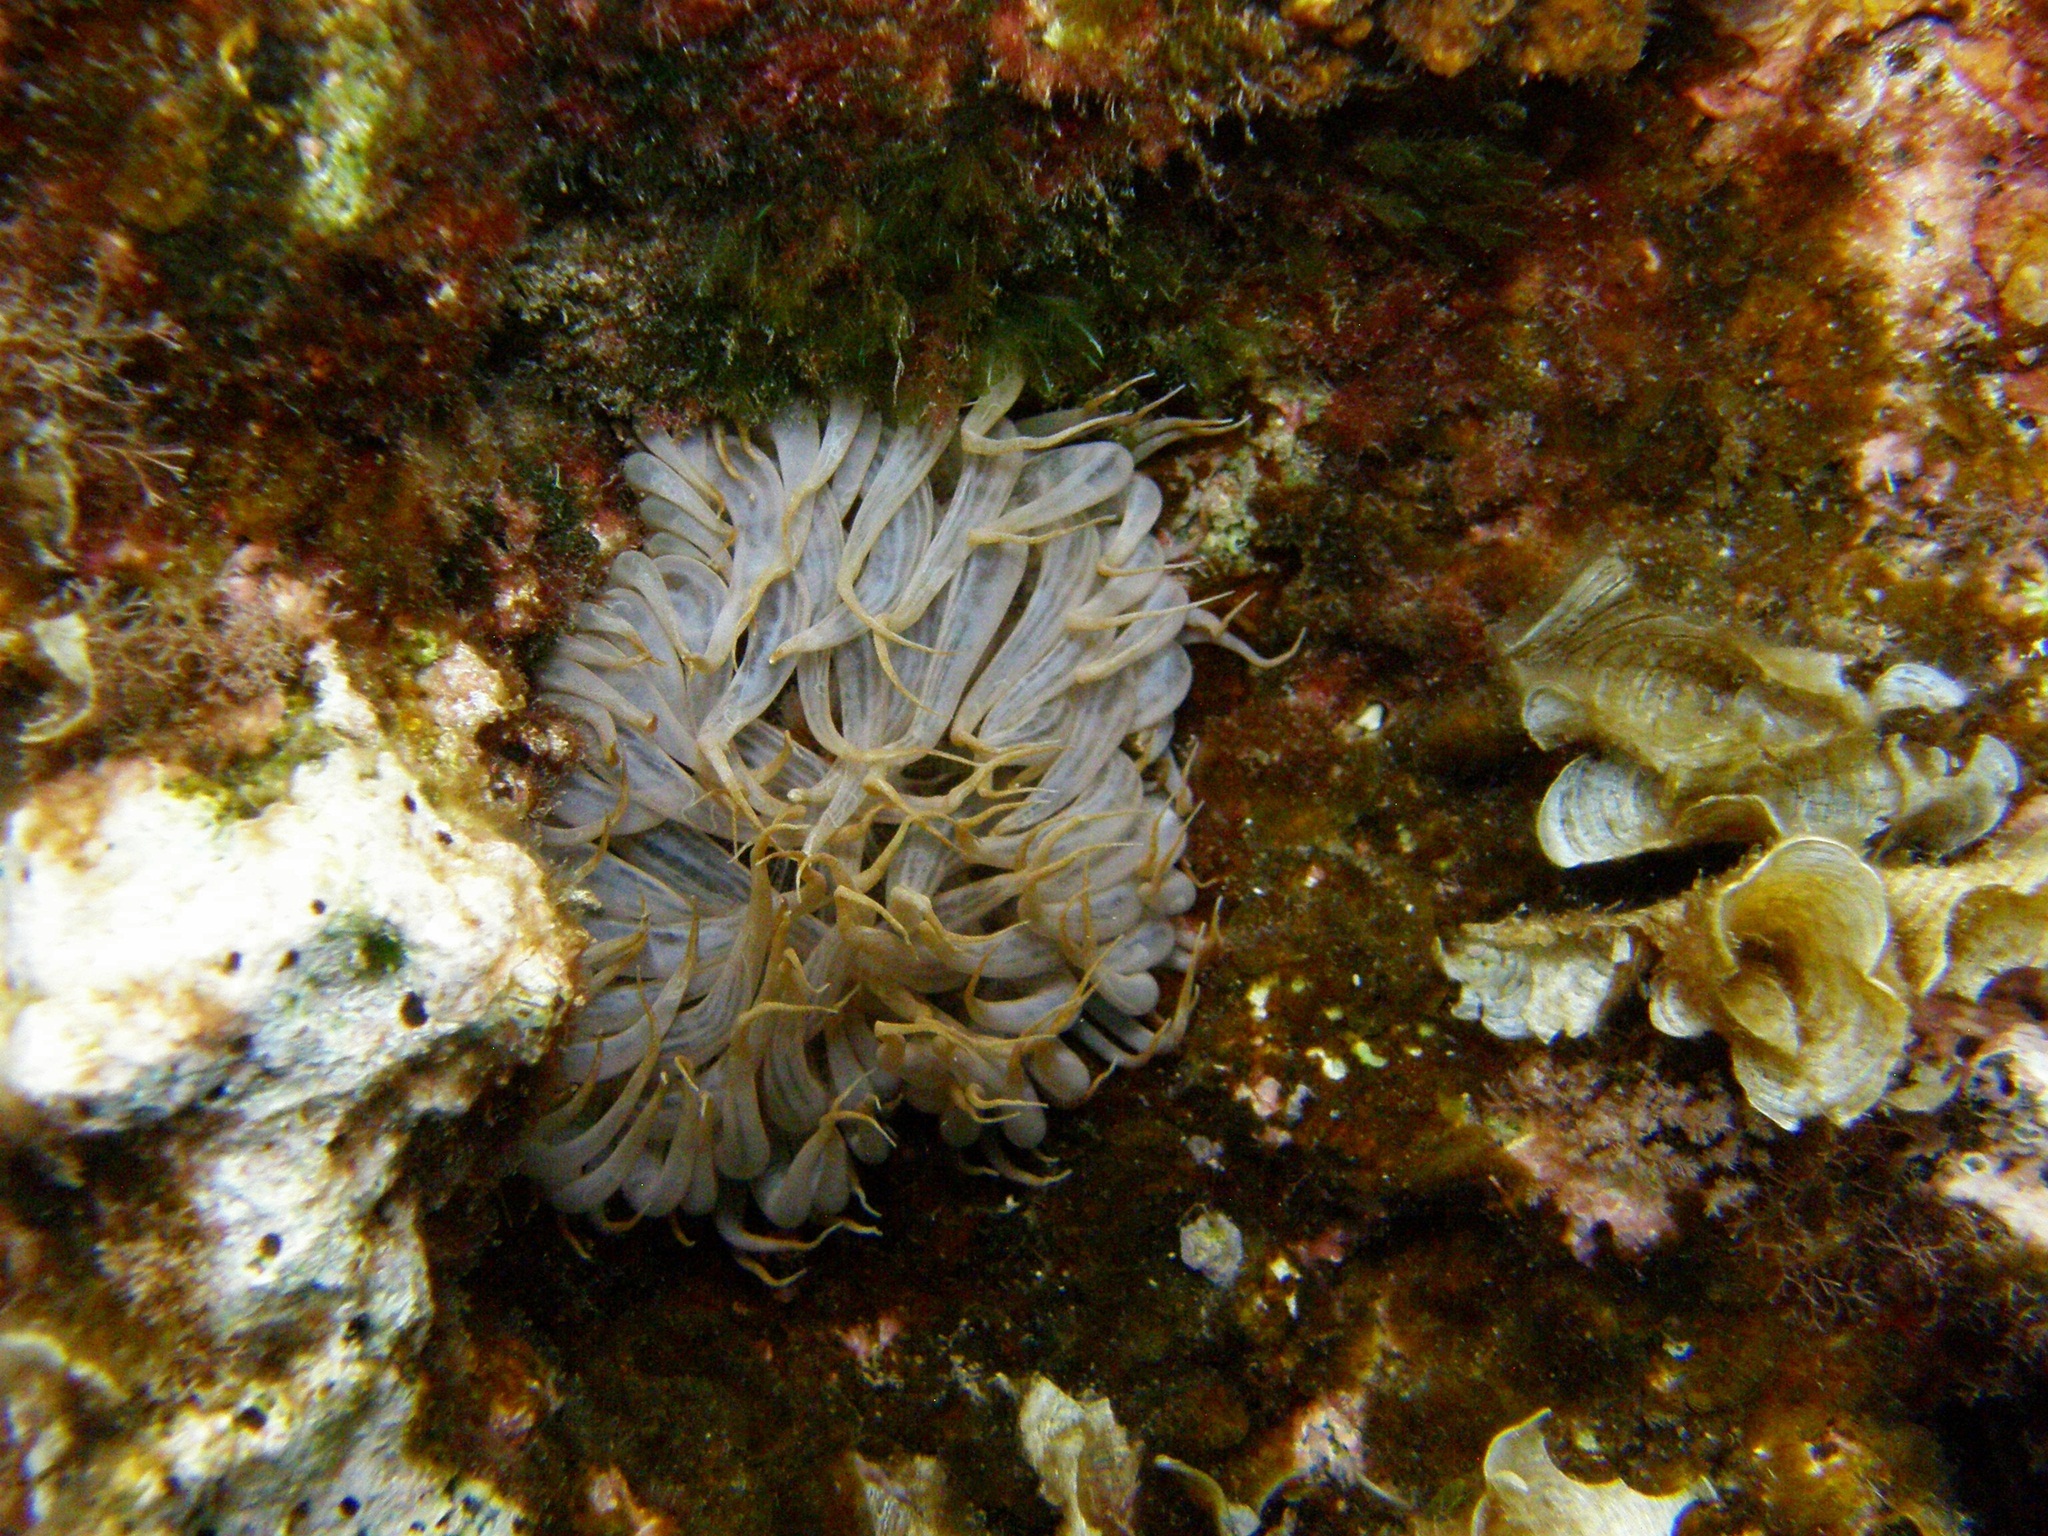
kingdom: Animalia
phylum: Cnidaria
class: Anthozoa
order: Actiniaria
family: Aiptasiidae
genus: Aiptasia
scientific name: Aiptasia mutabilis
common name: Trumpet anemone
